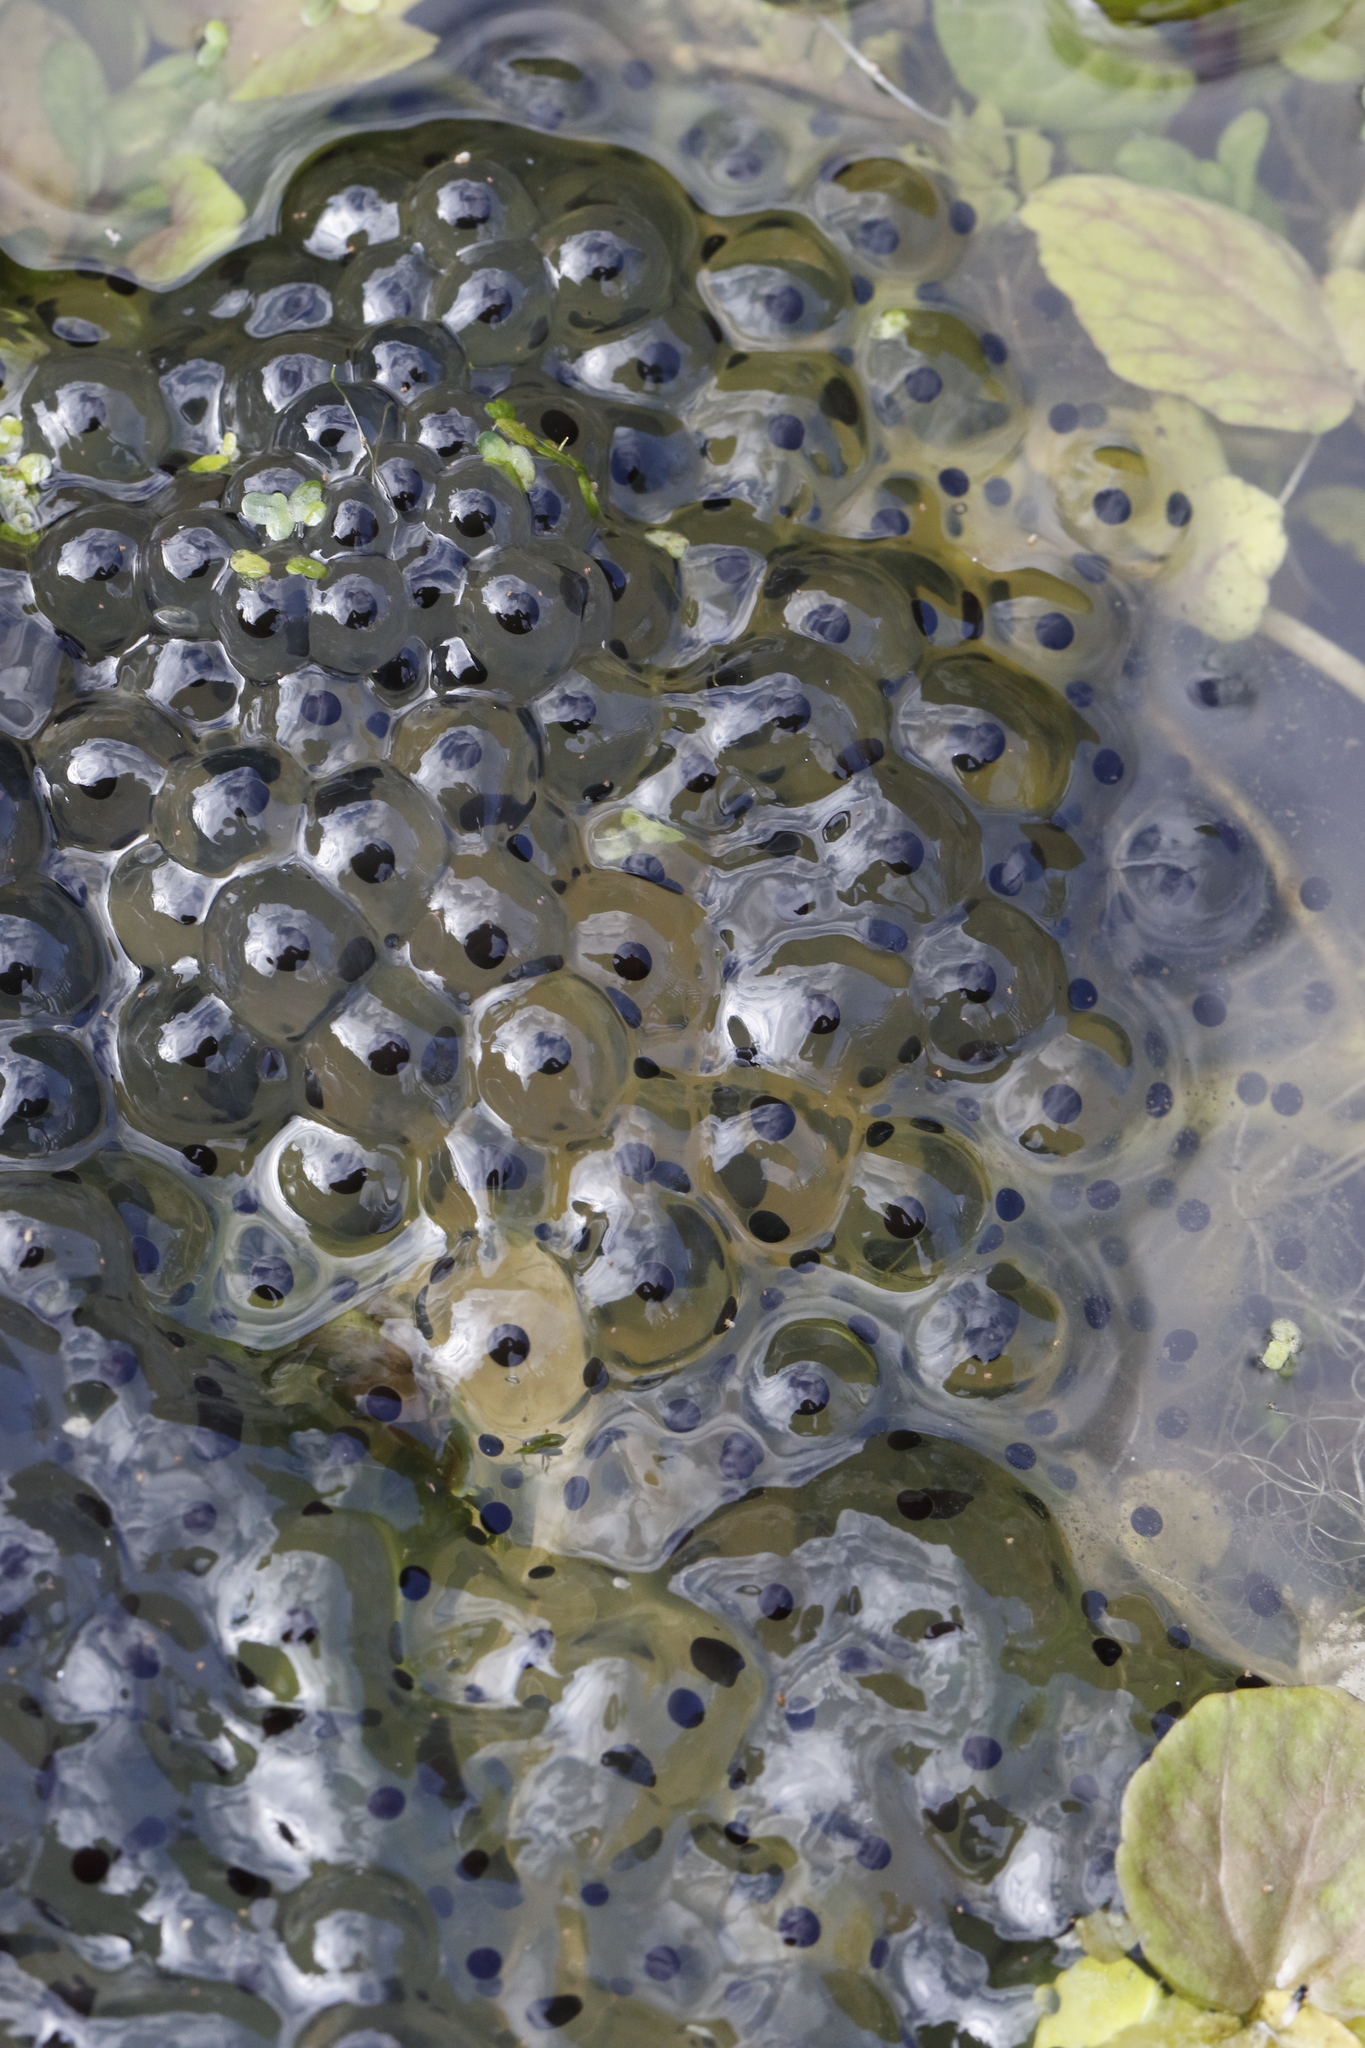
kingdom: Animalia
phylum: Chordata
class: Amphibia
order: Anura
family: Ranidae
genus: Rana
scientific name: Rana temporaria
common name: Common frog
